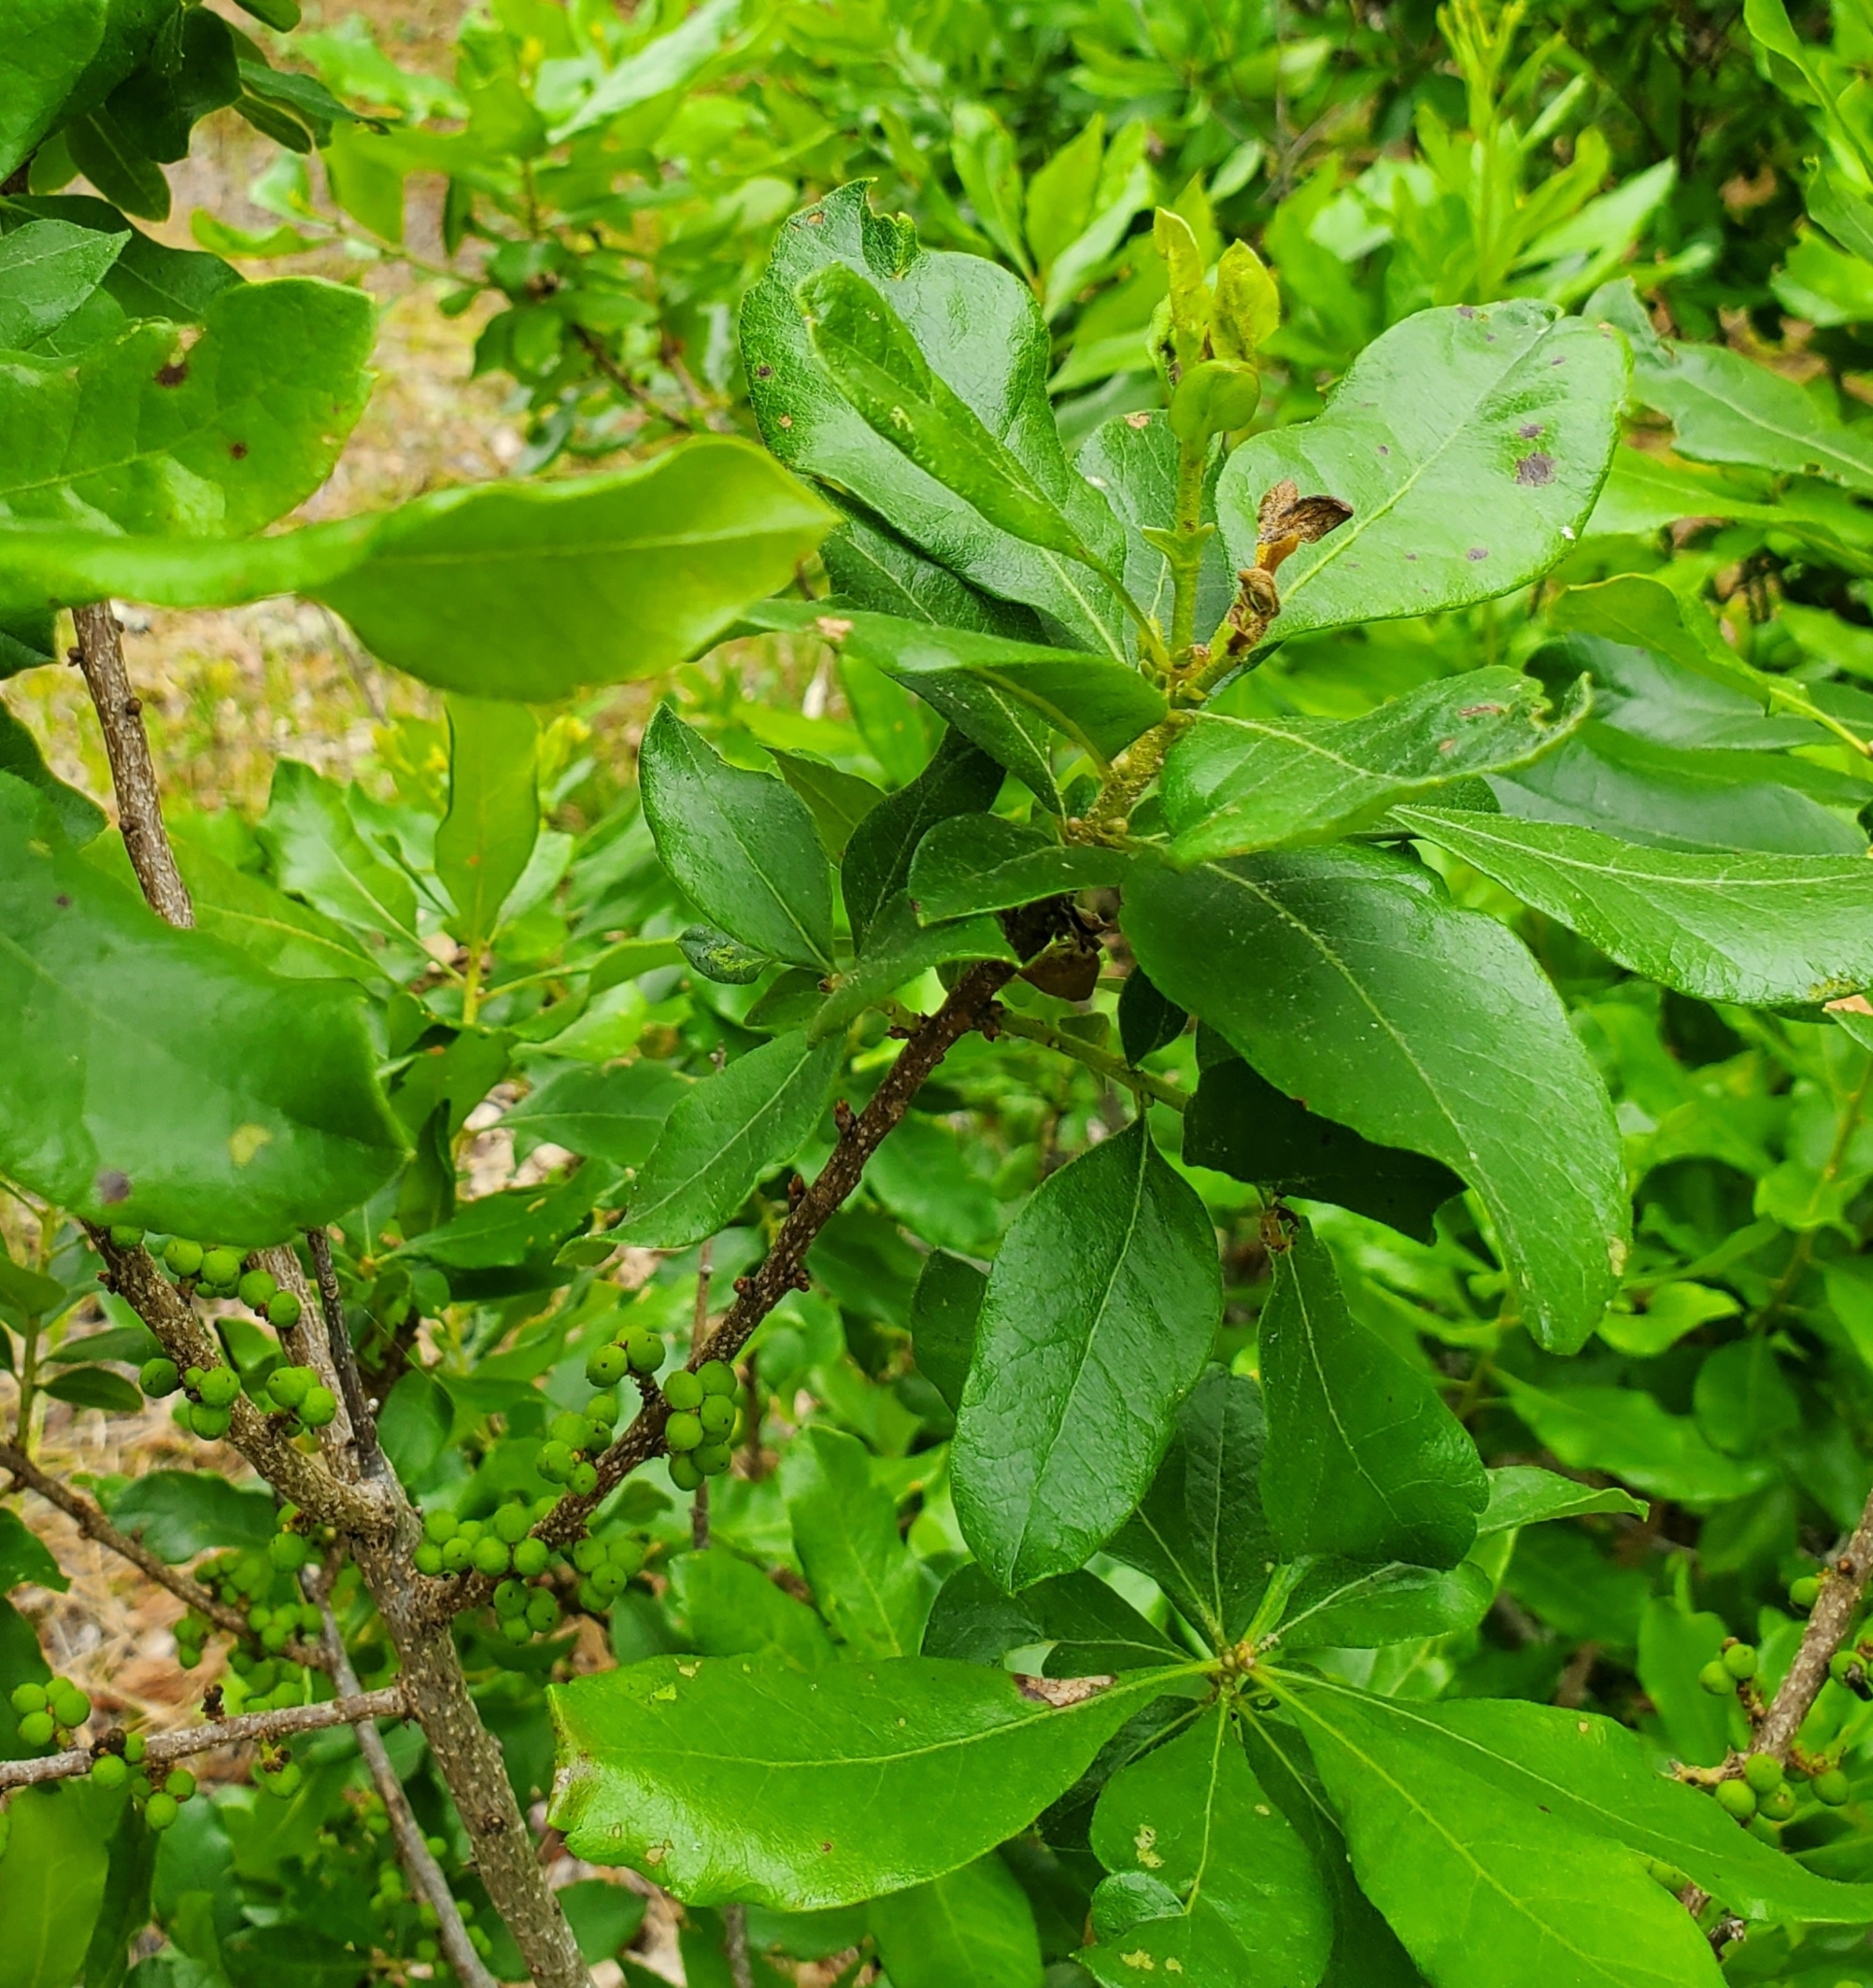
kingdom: Plantae
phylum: Tracheophyta
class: Magnoliopsida
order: Fagales
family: Myricaceae
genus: Morella
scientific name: Morella pensylvanica
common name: Northern bayberry
